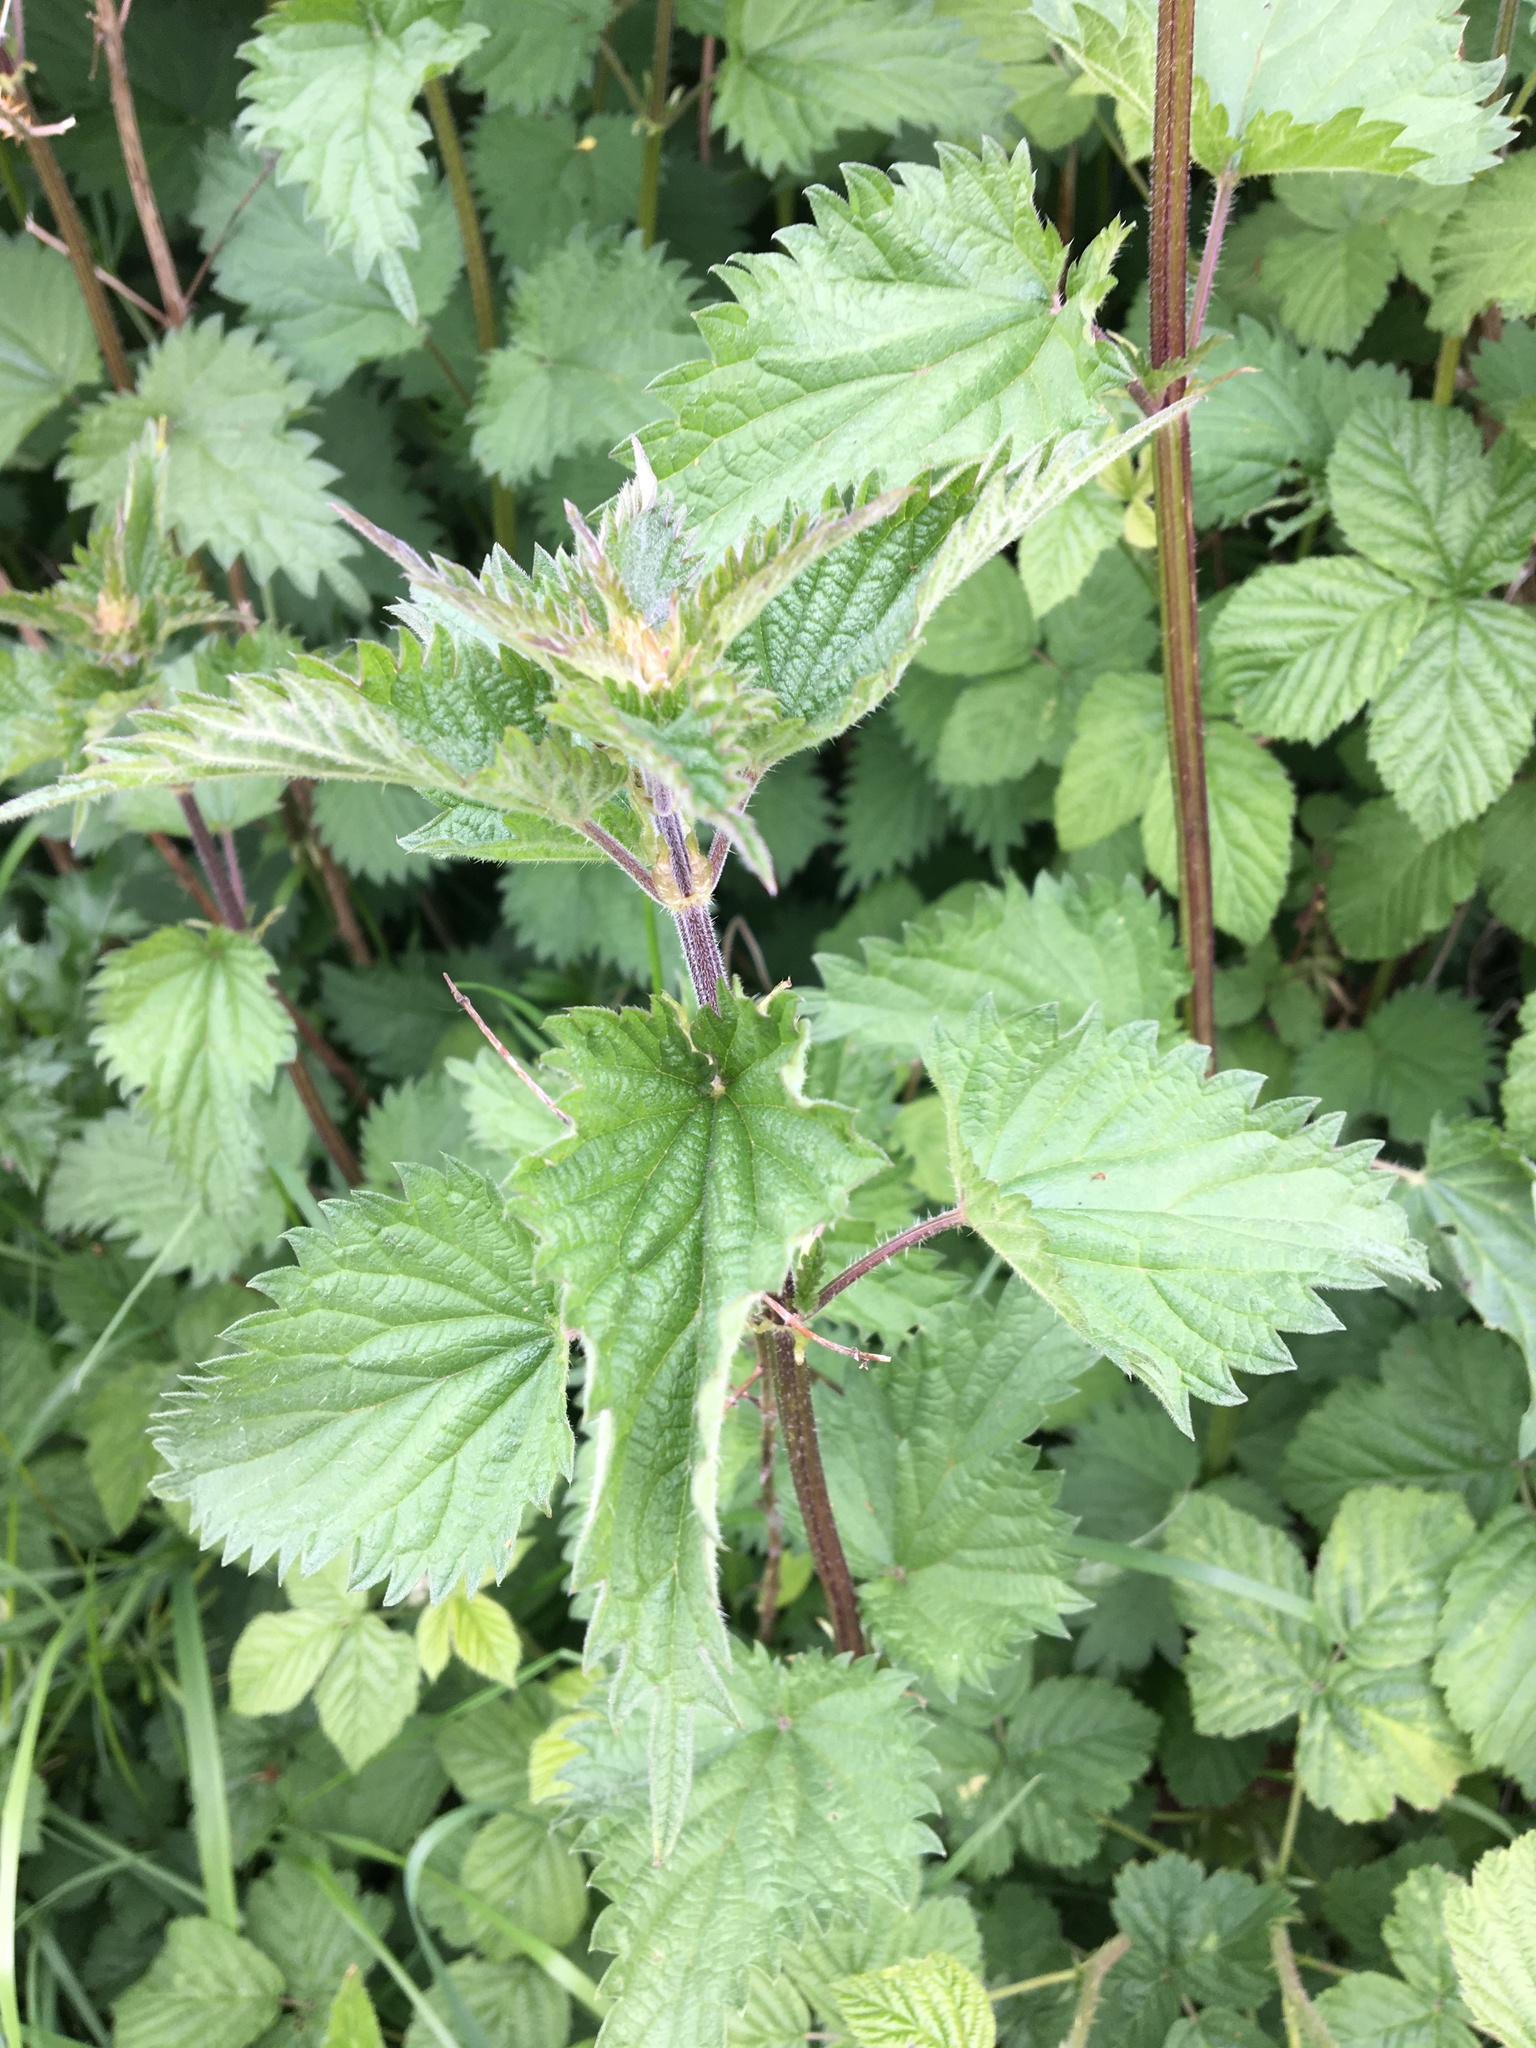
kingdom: Plantae
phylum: Tracheophyta
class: Magnoliopsida
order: Rosales
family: Urticaceae
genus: Urtica
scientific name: Urtica dioica
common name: Common nettle
